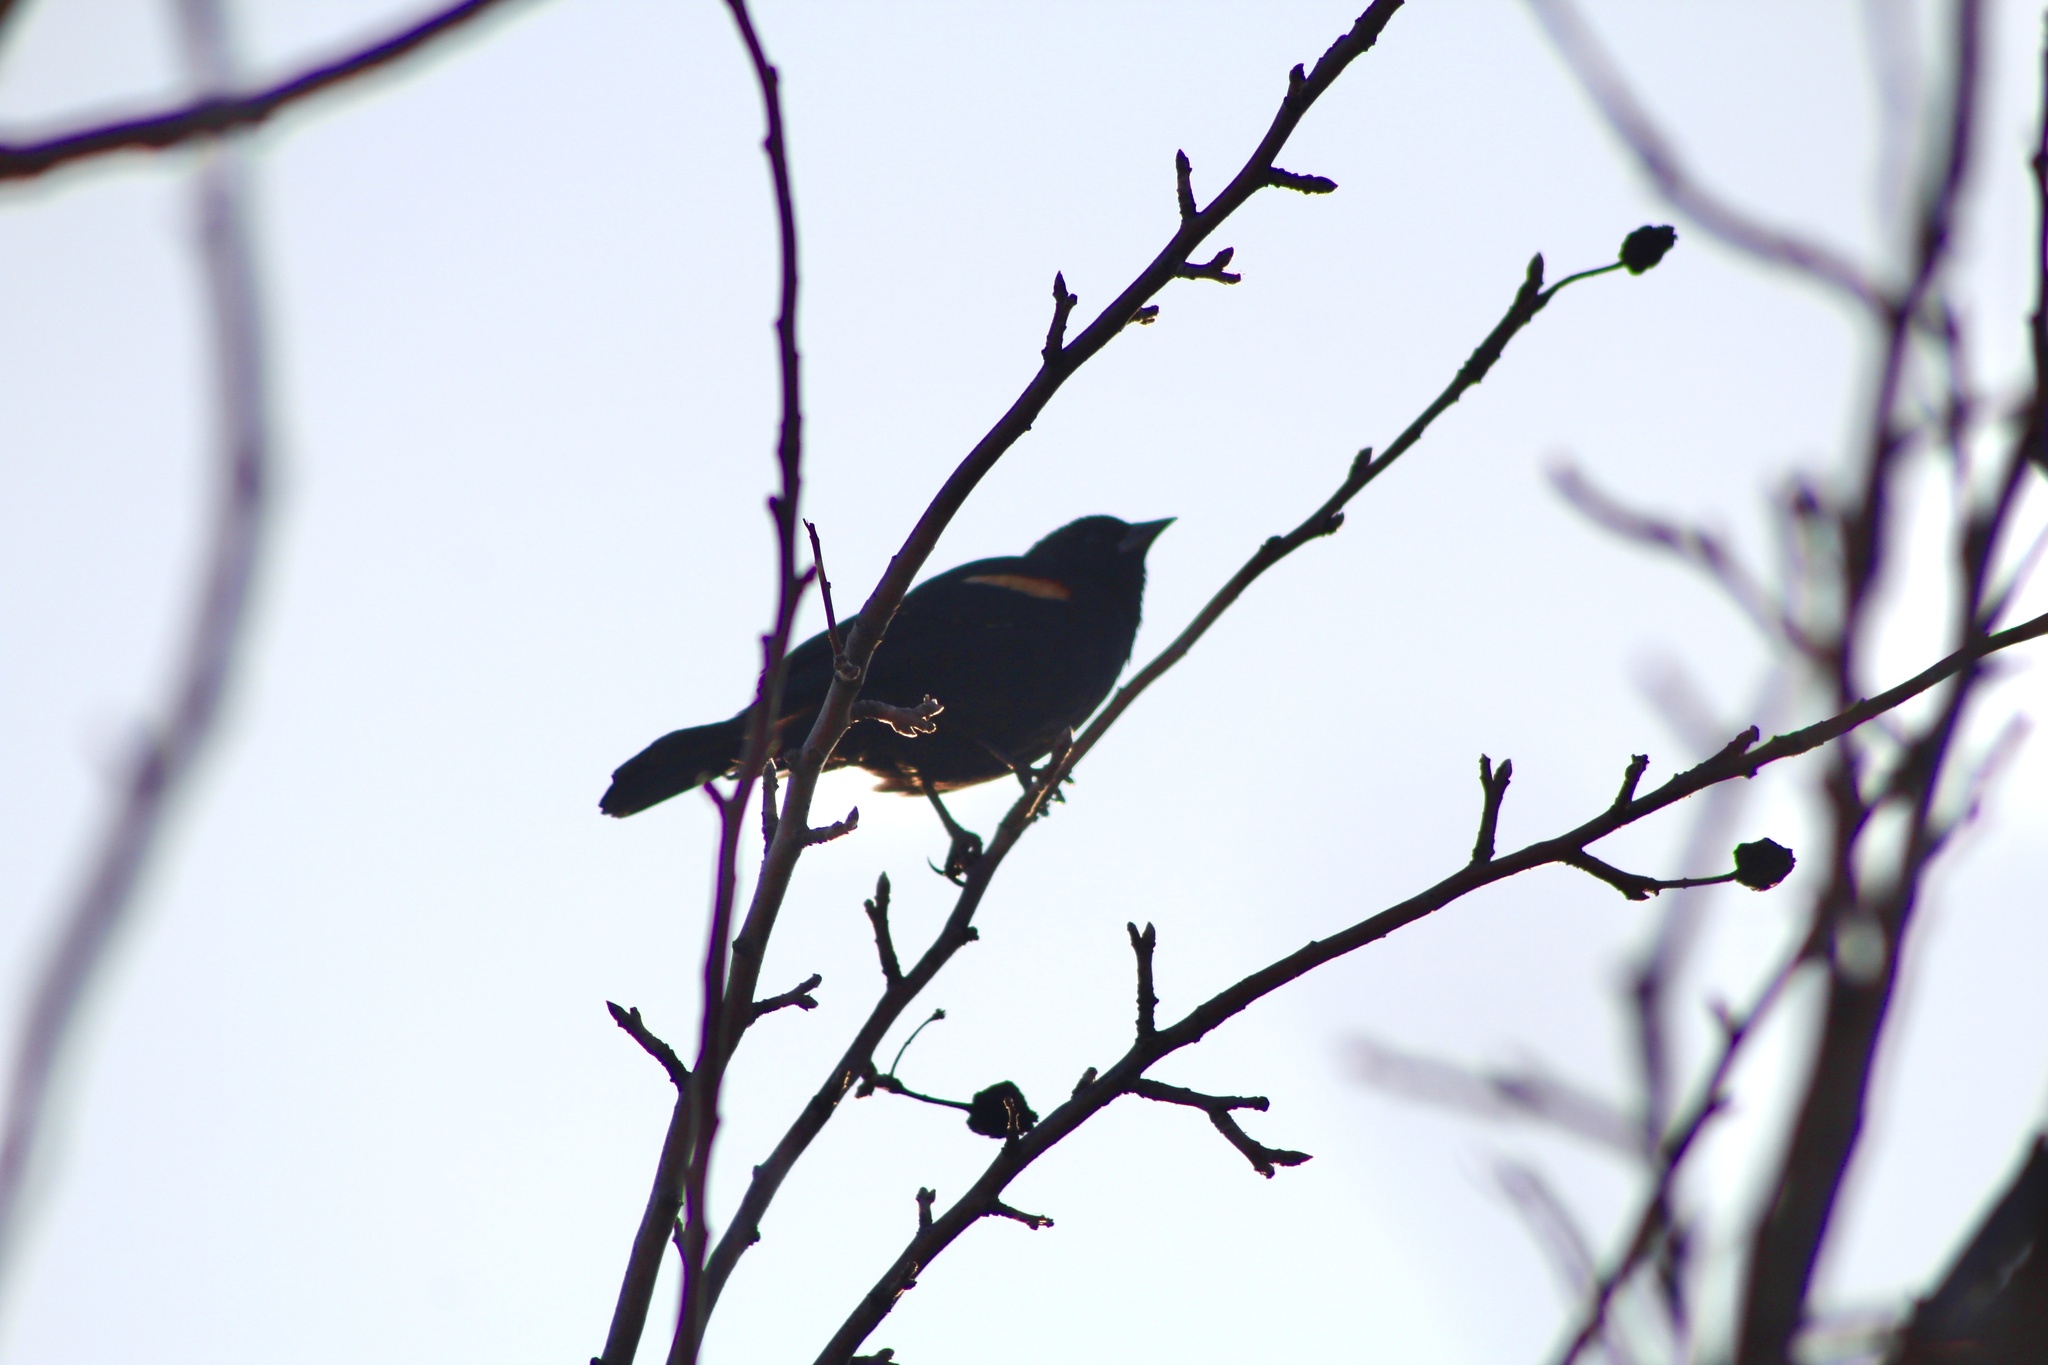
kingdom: Animalia
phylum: Chordata
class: Aves
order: Passeriformes
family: Icteridae
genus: Agelaius
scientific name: Agelaius phoeniceus
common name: Red-winged blackbird
